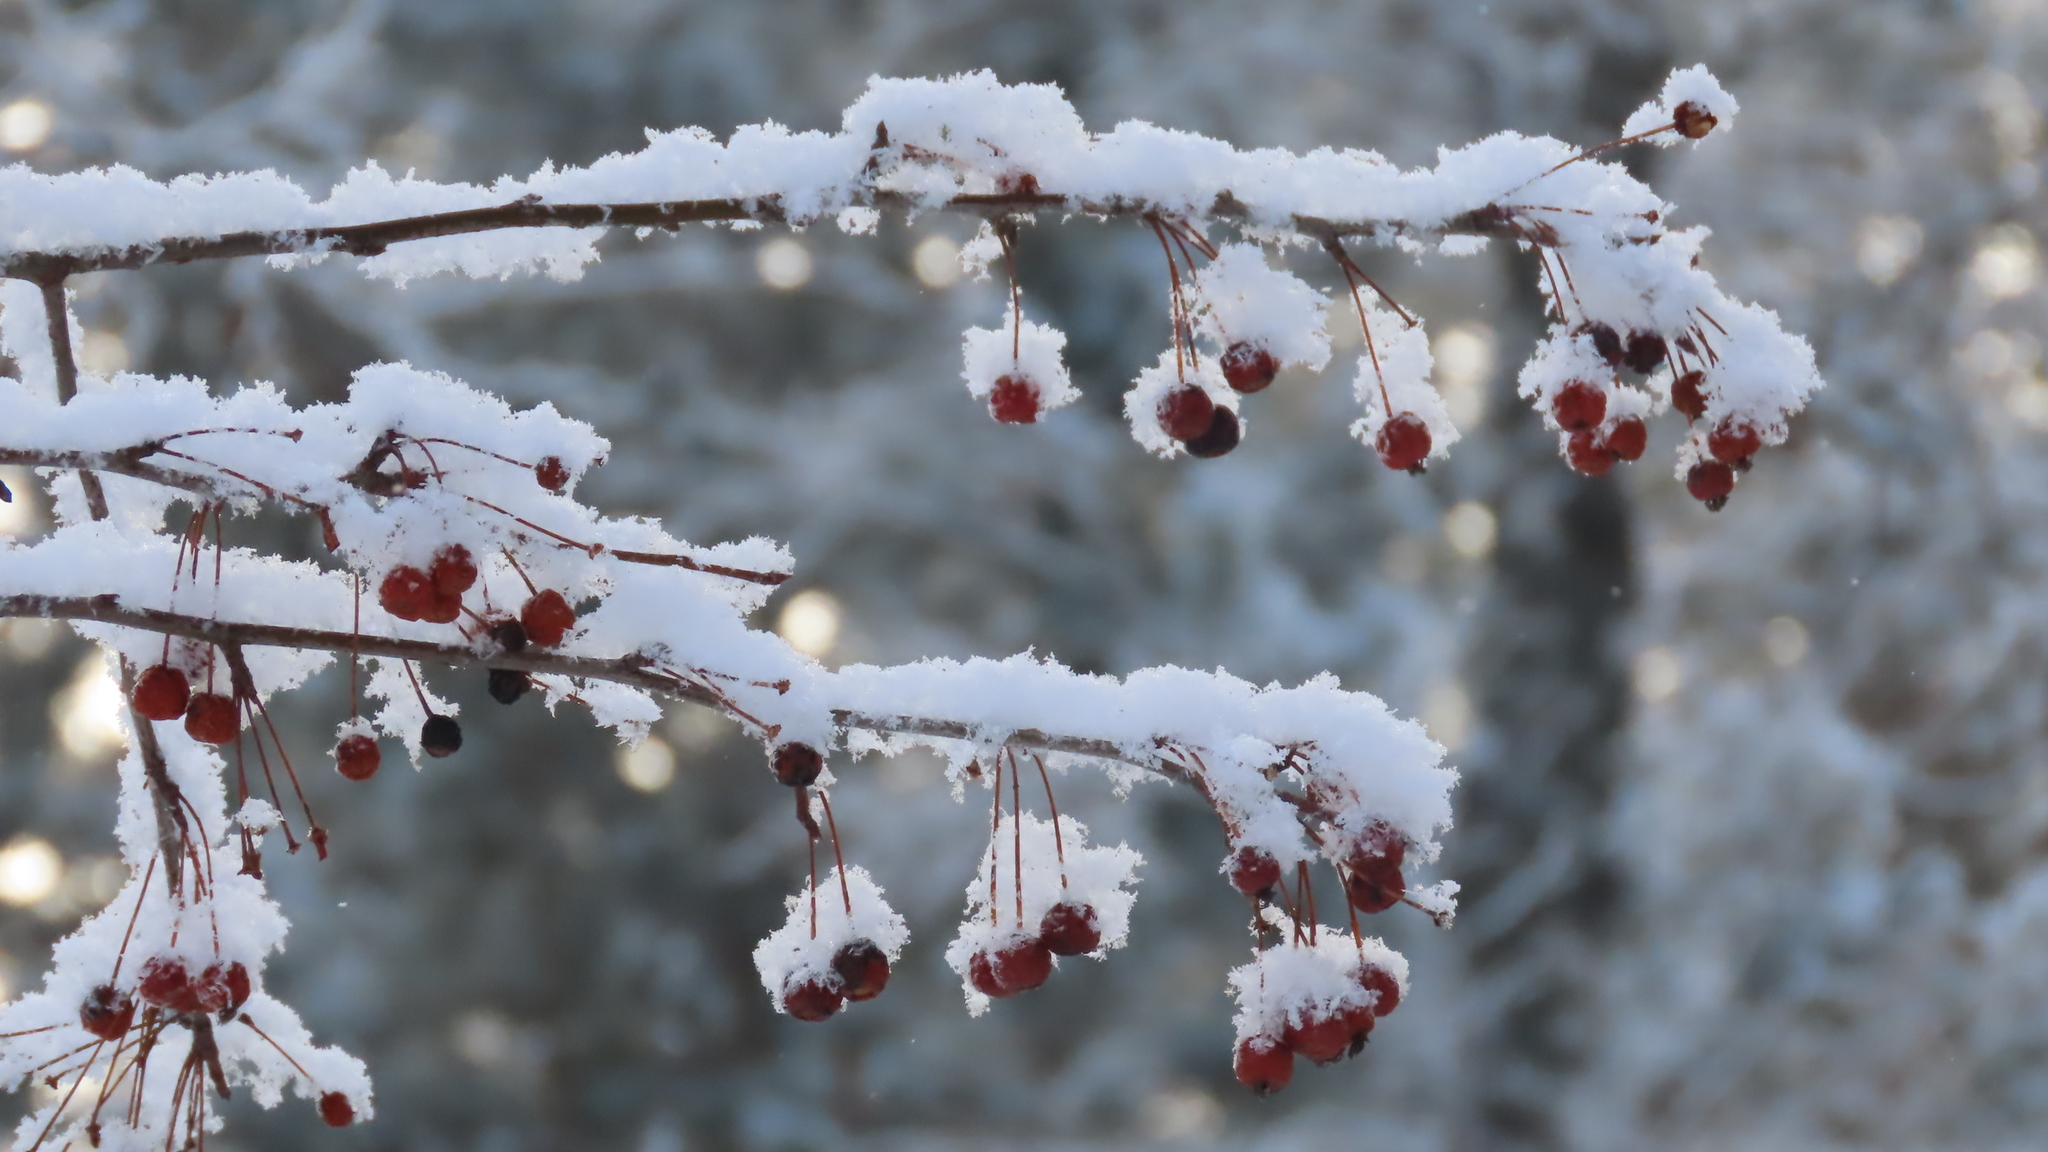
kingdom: Plantae
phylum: Tracheophyta
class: Magnoliopsida
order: Rosales
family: Rosaceae
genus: Malus
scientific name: Malus baccata
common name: Siberian crab
